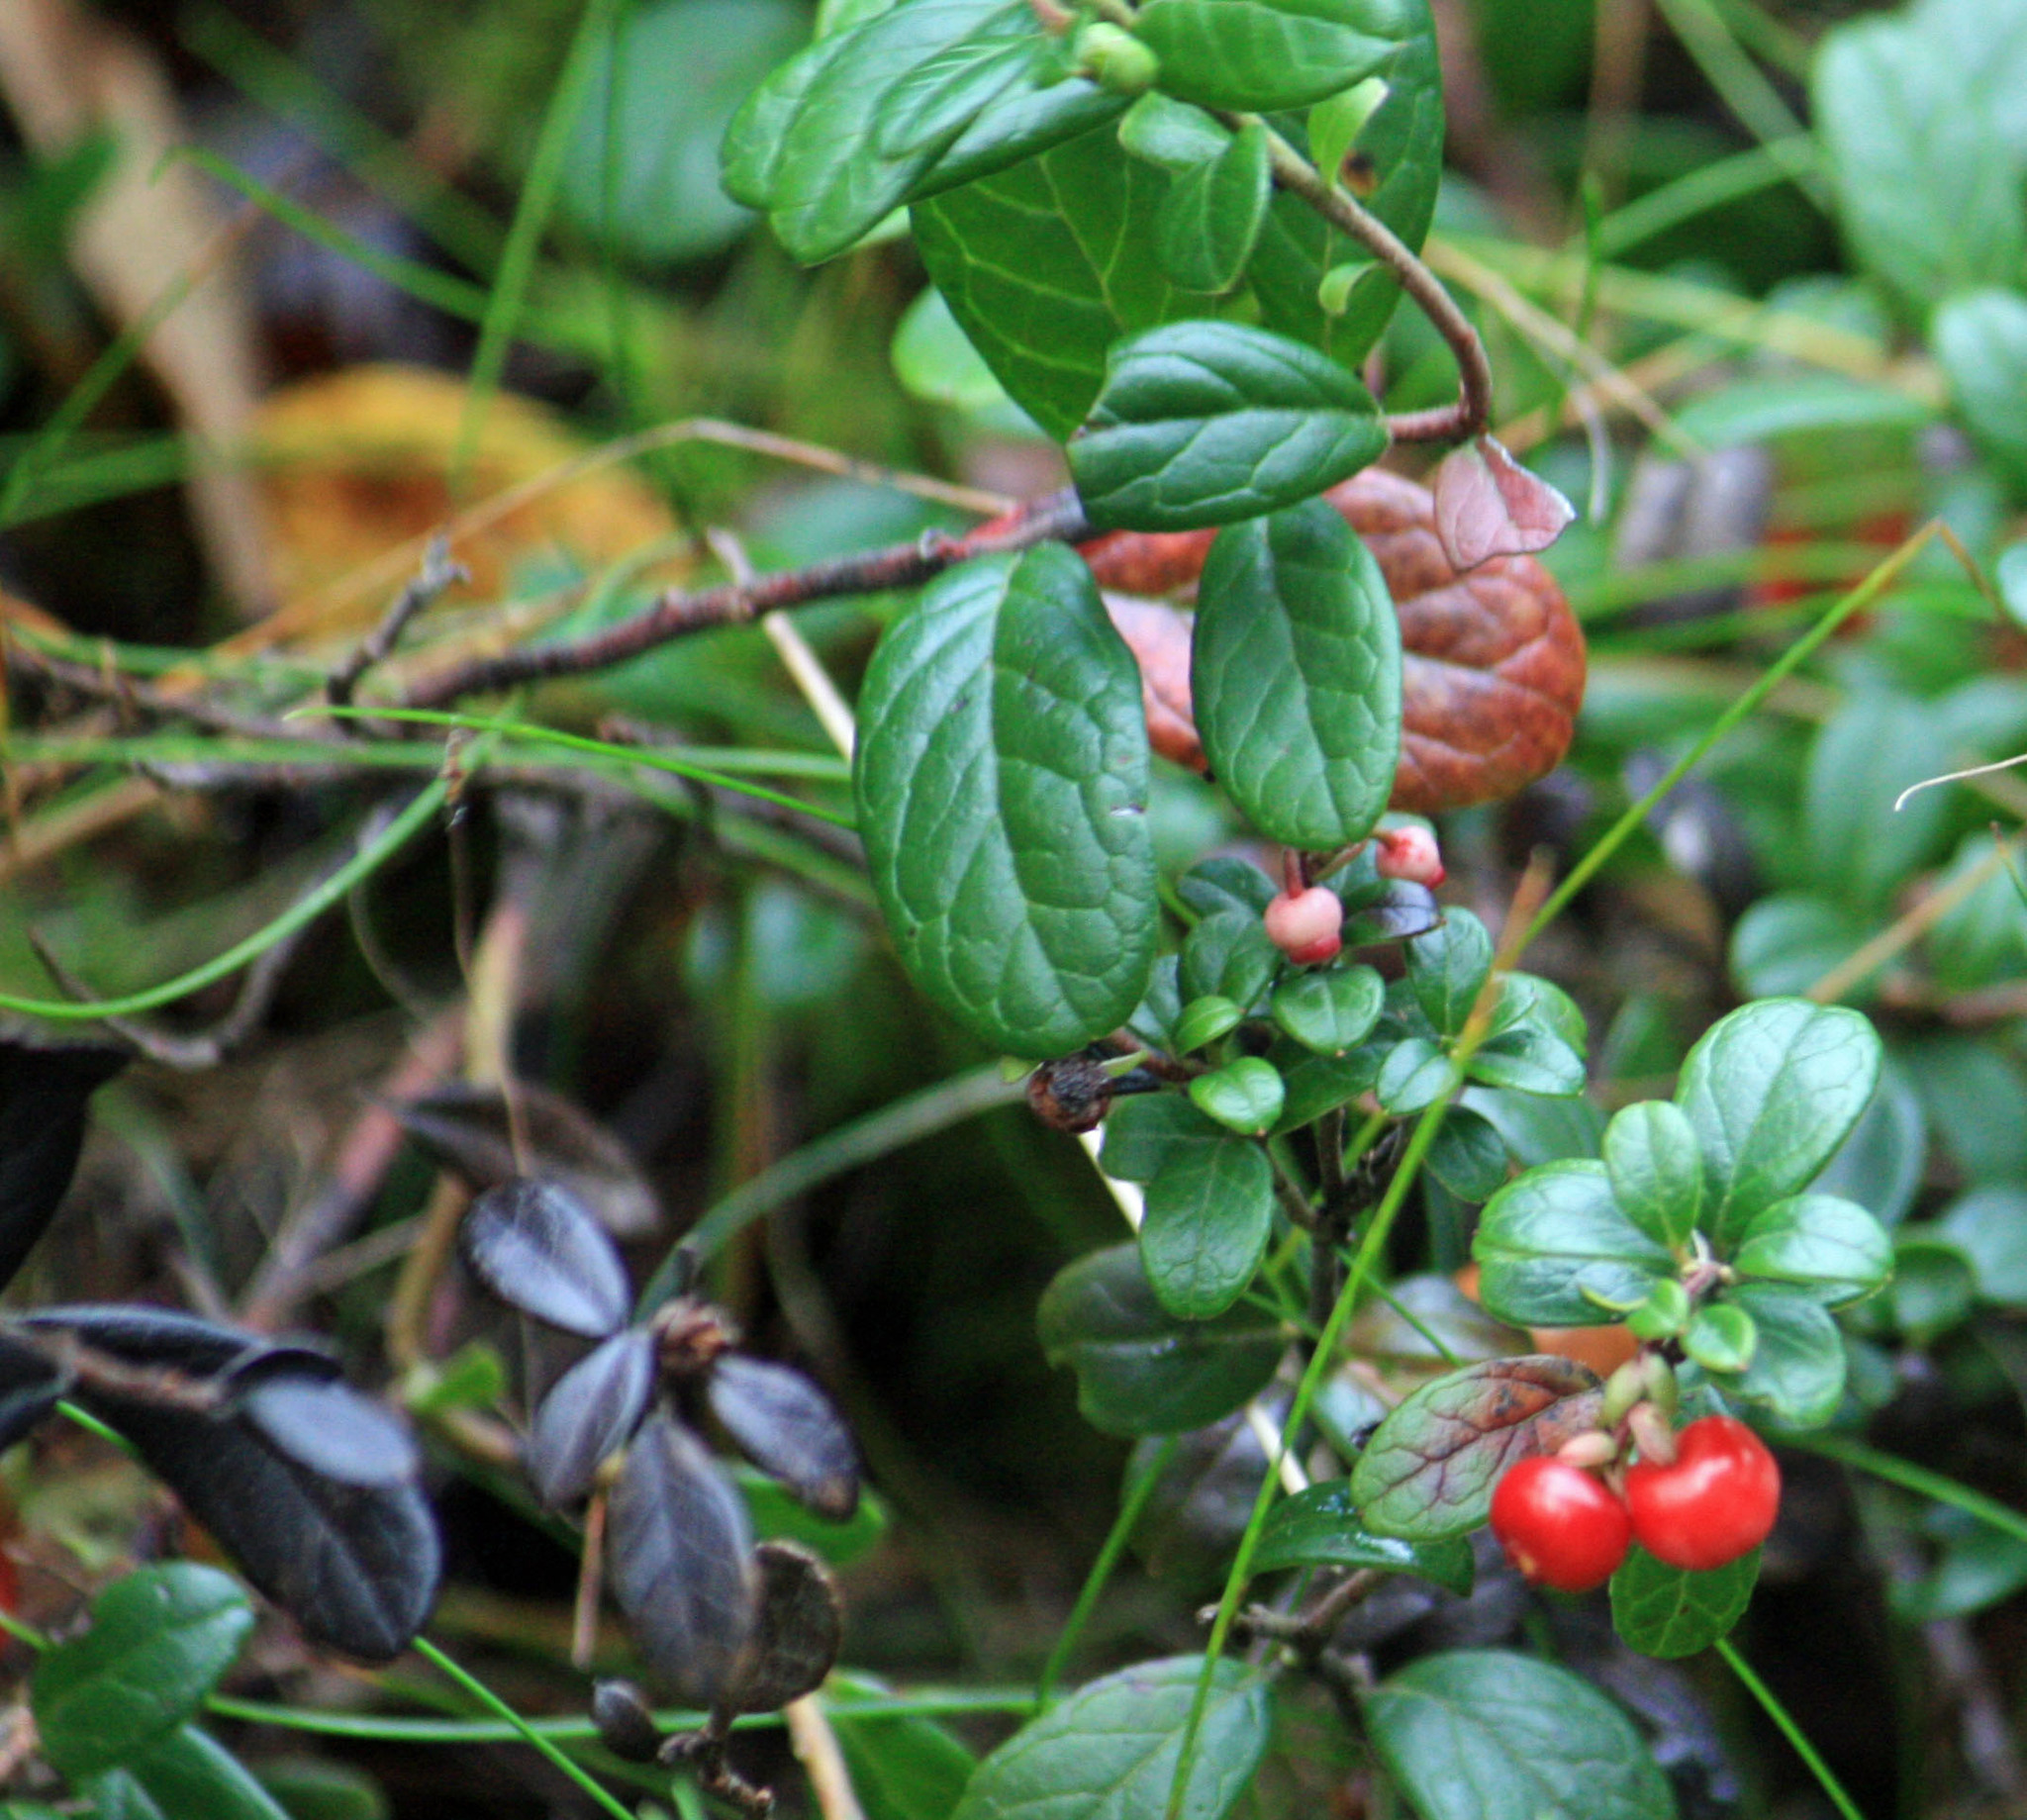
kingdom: Plantae
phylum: Tracheophyta
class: Magnoliopsida
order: Ericales
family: Ericaceae
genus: Vaccinium
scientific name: Vaccinium vitis-idaea
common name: Cowberry
